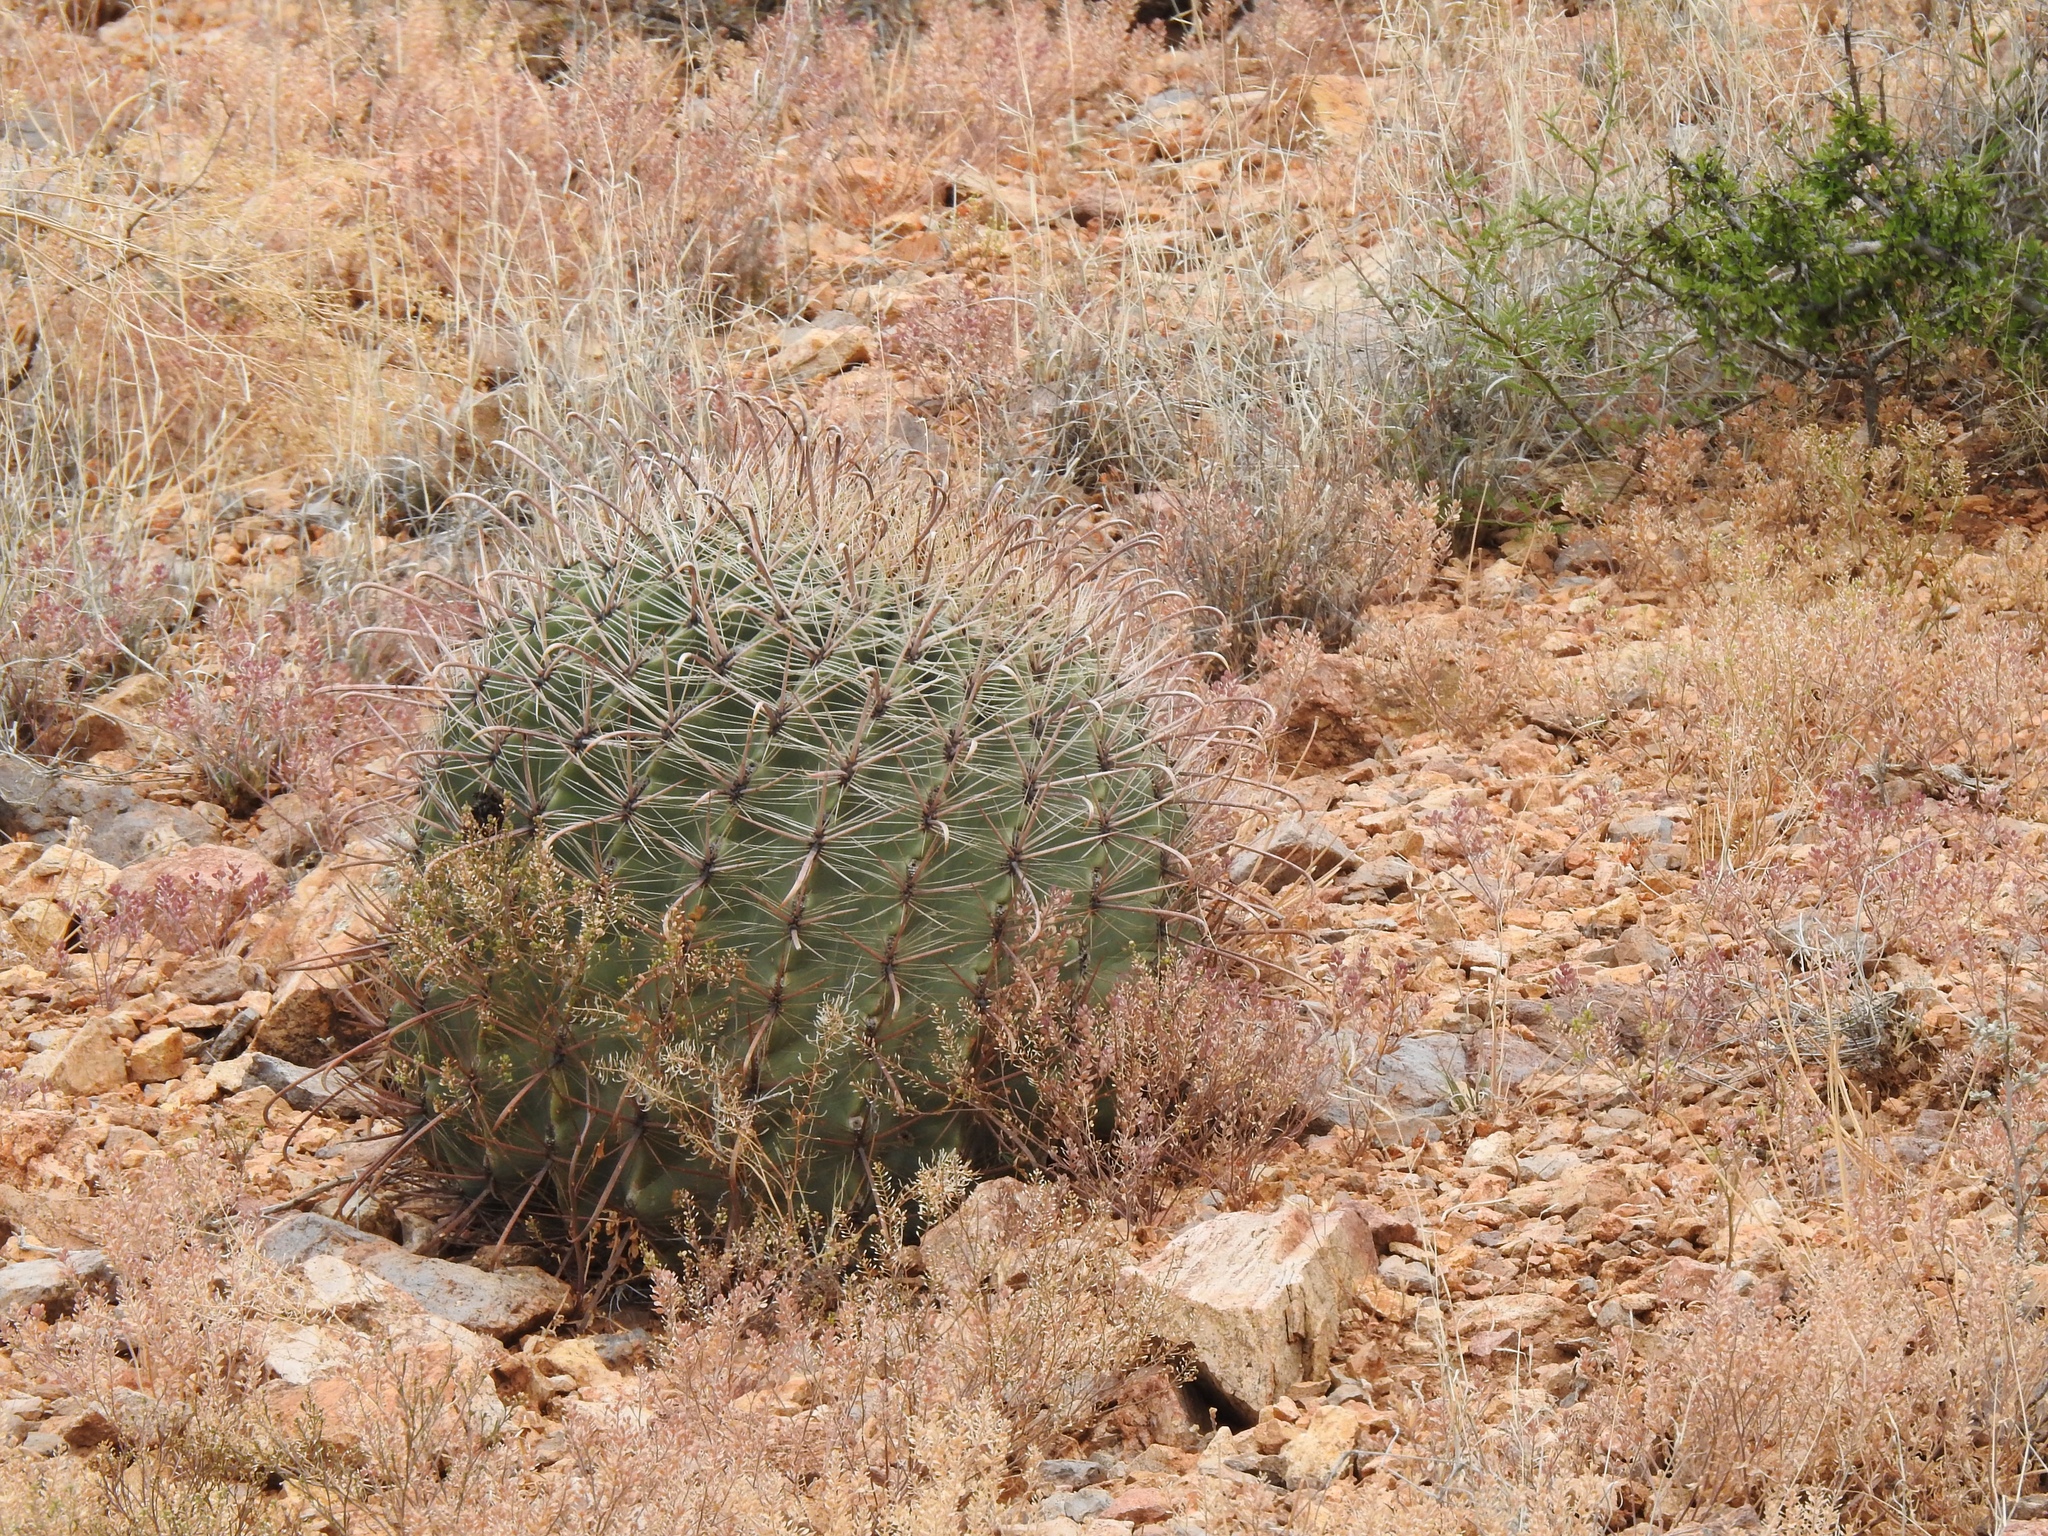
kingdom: Plantae
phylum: Tracheophyta
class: Magnoliopsida
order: Caryophyllales
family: Cactaceae
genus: Ferocactus
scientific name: Ferocactus wislizeni
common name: Candy barrel cactus
